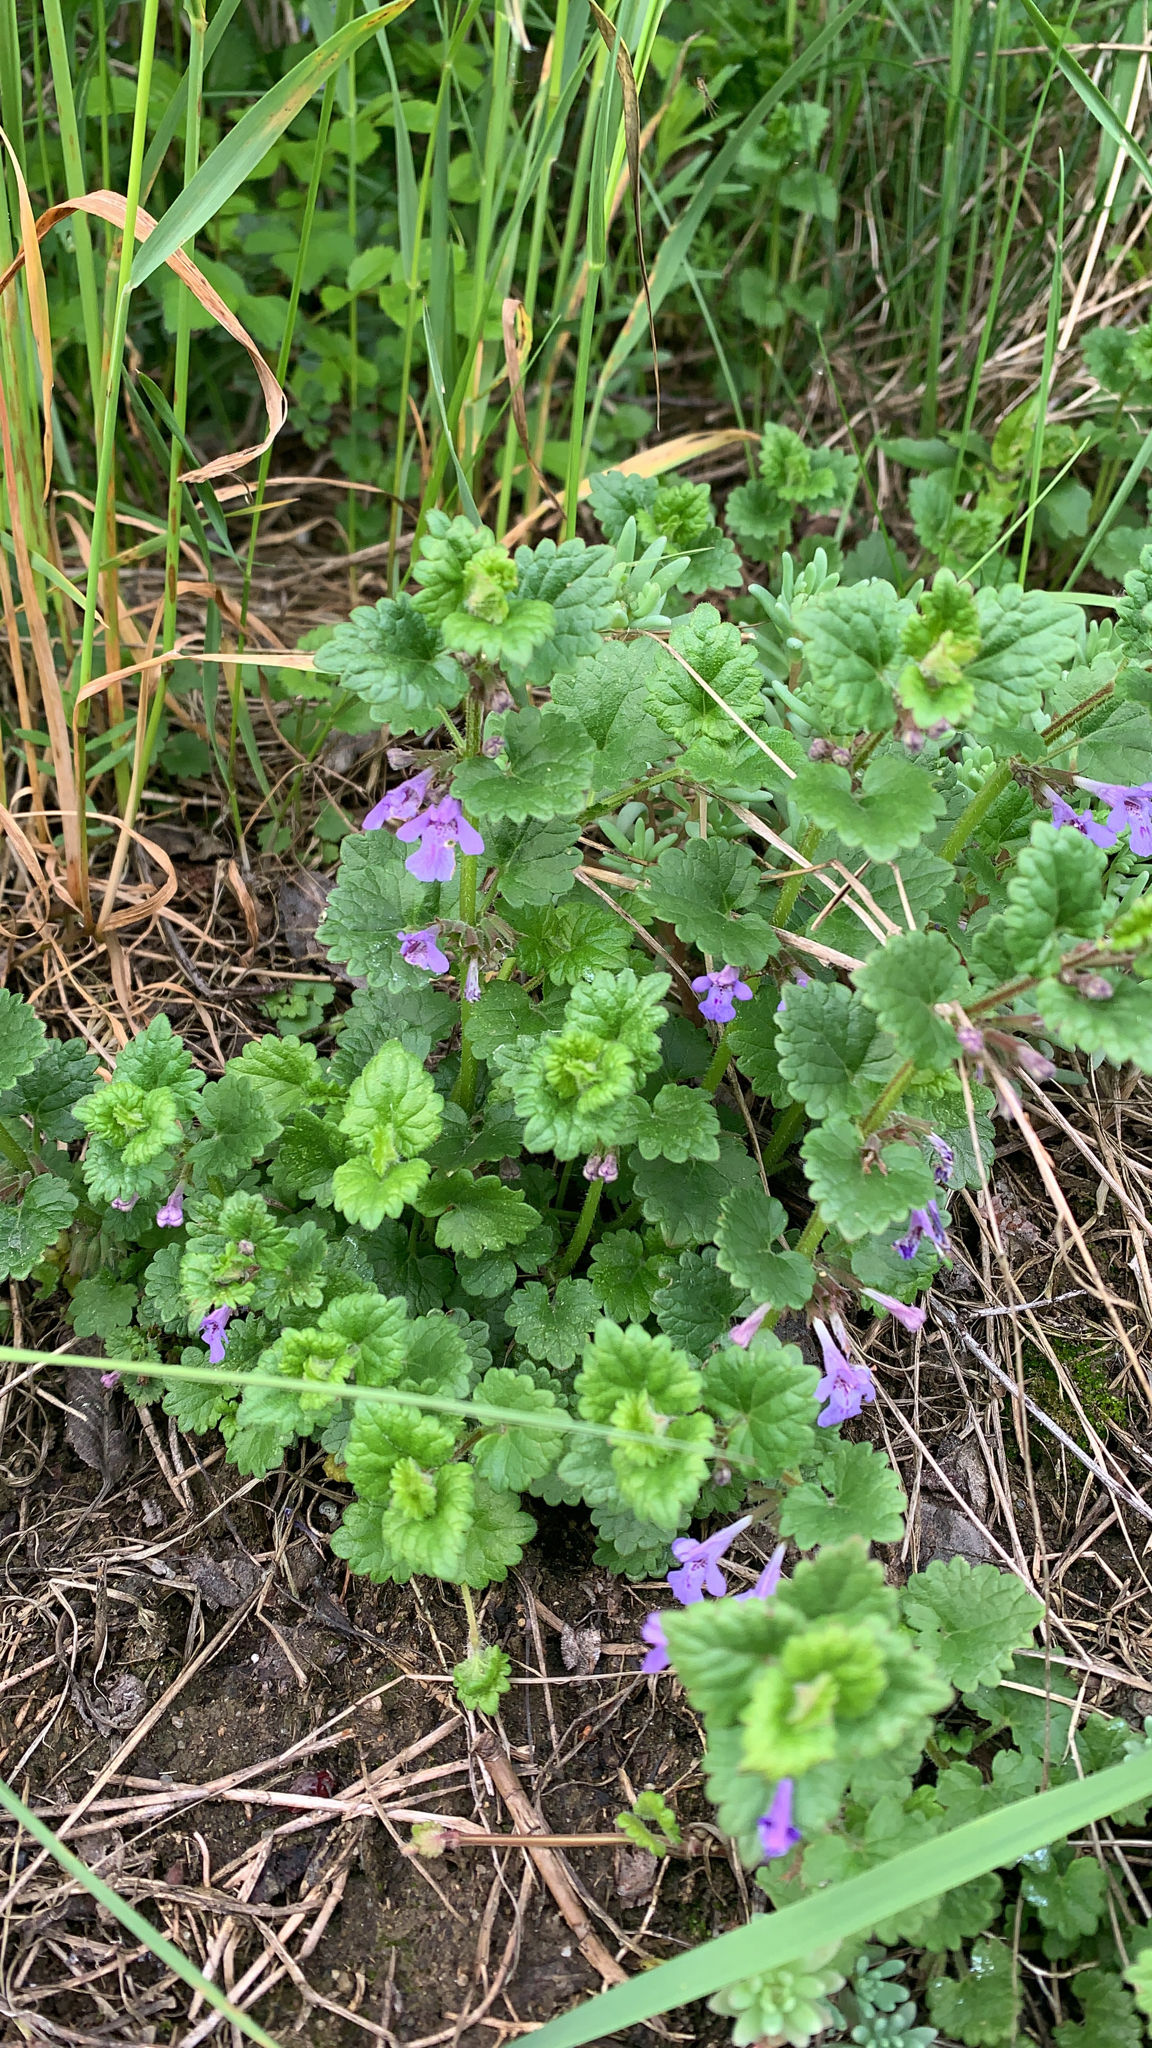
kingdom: Plantae
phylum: Tracheophyta
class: Magnoliopsida
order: Lamiales
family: Lamiaceae
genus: Glechoma
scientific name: Glechoma hederacea
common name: Ground ivy
